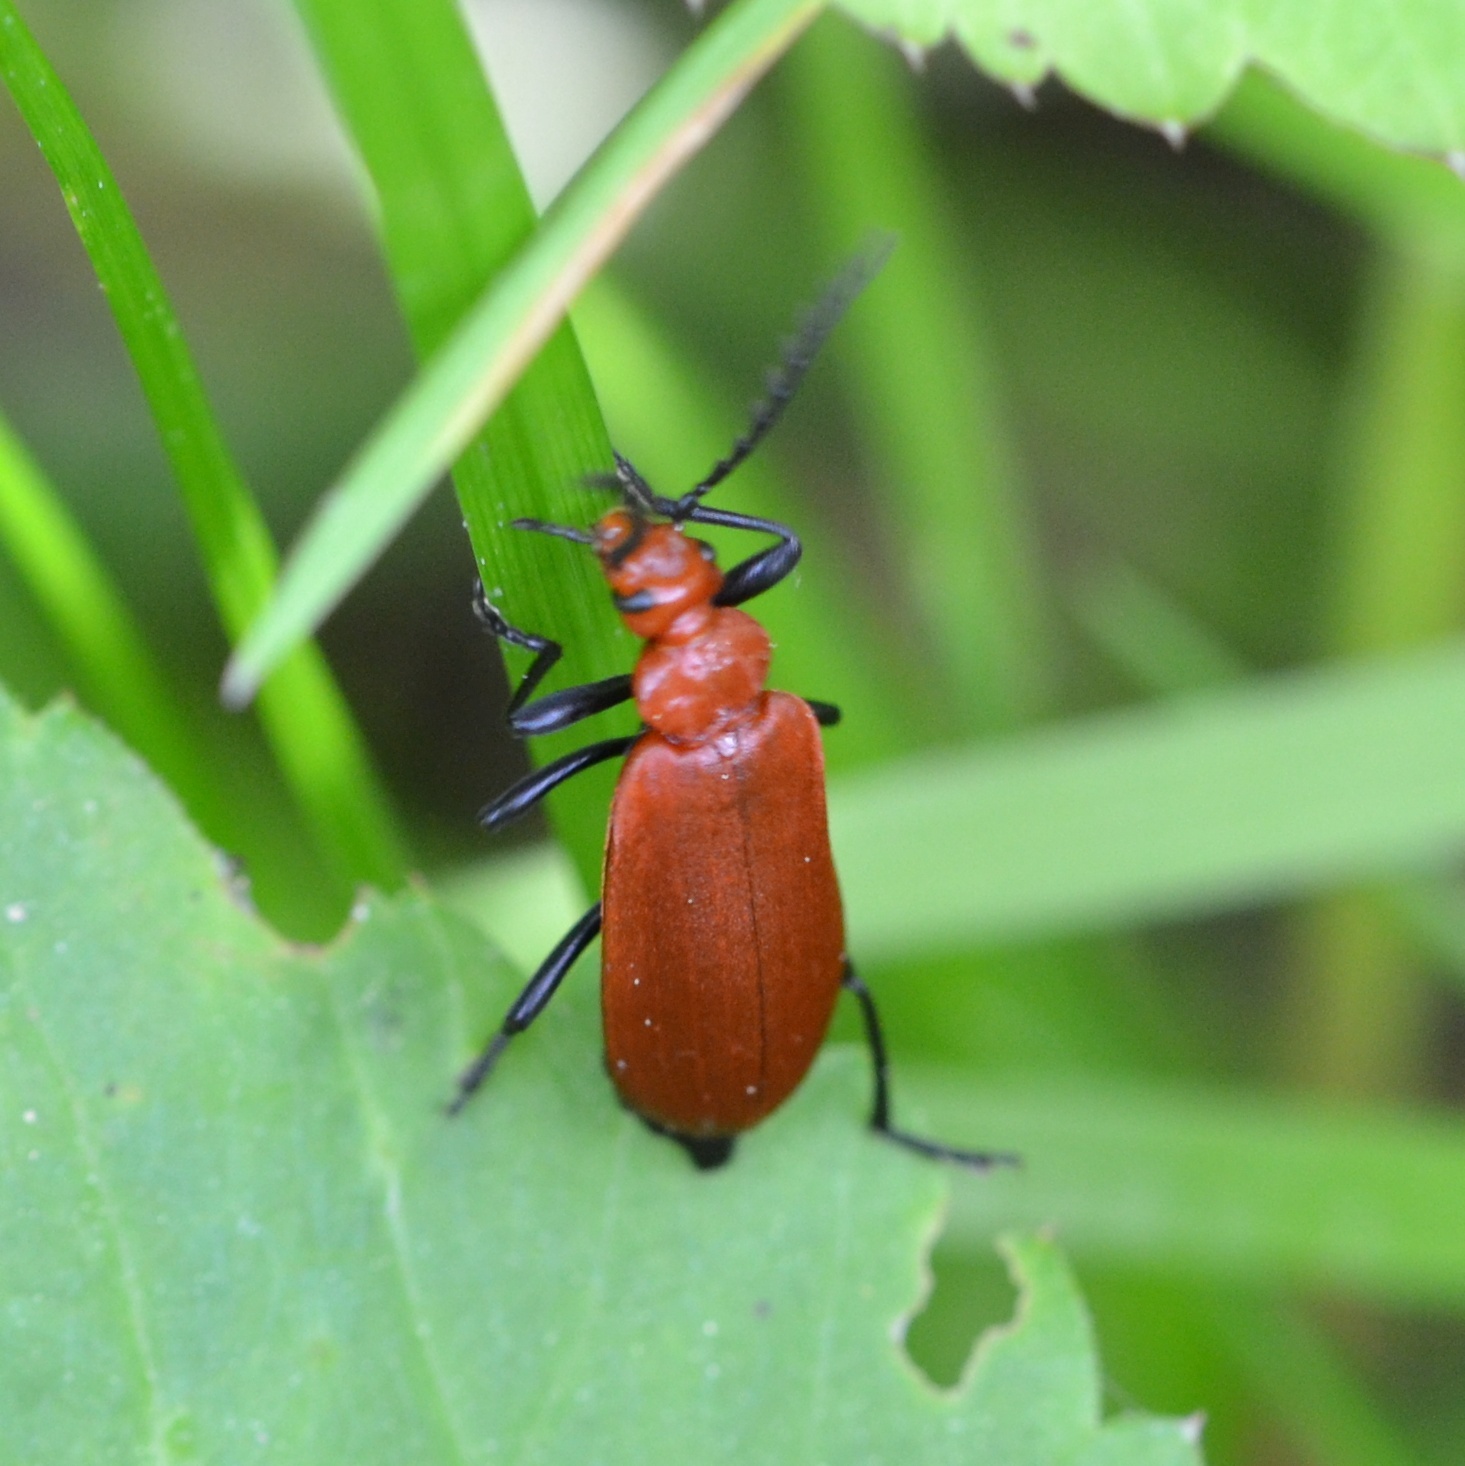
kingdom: Animalia
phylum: Arthropoda
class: Insecta
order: Coleoptera
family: Pyrochroidae
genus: Pyrochroa
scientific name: Pyrochroa serraticornis
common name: Red-headed cardinal beetle
